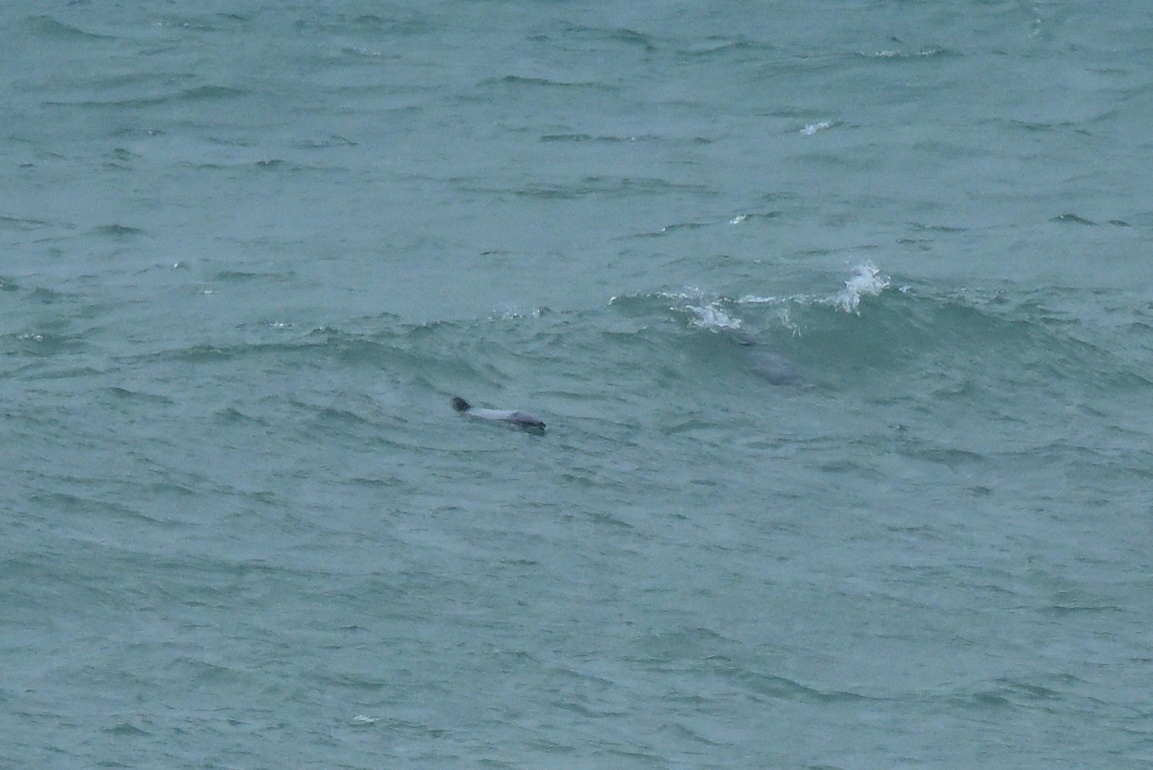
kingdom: Animalia
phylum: Chordata
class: Mammalia
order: Cetacea
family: Delphinidae
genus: Cephalorhynchus
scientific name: Cephalorhynchus hectori
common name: Hector's dolphin
